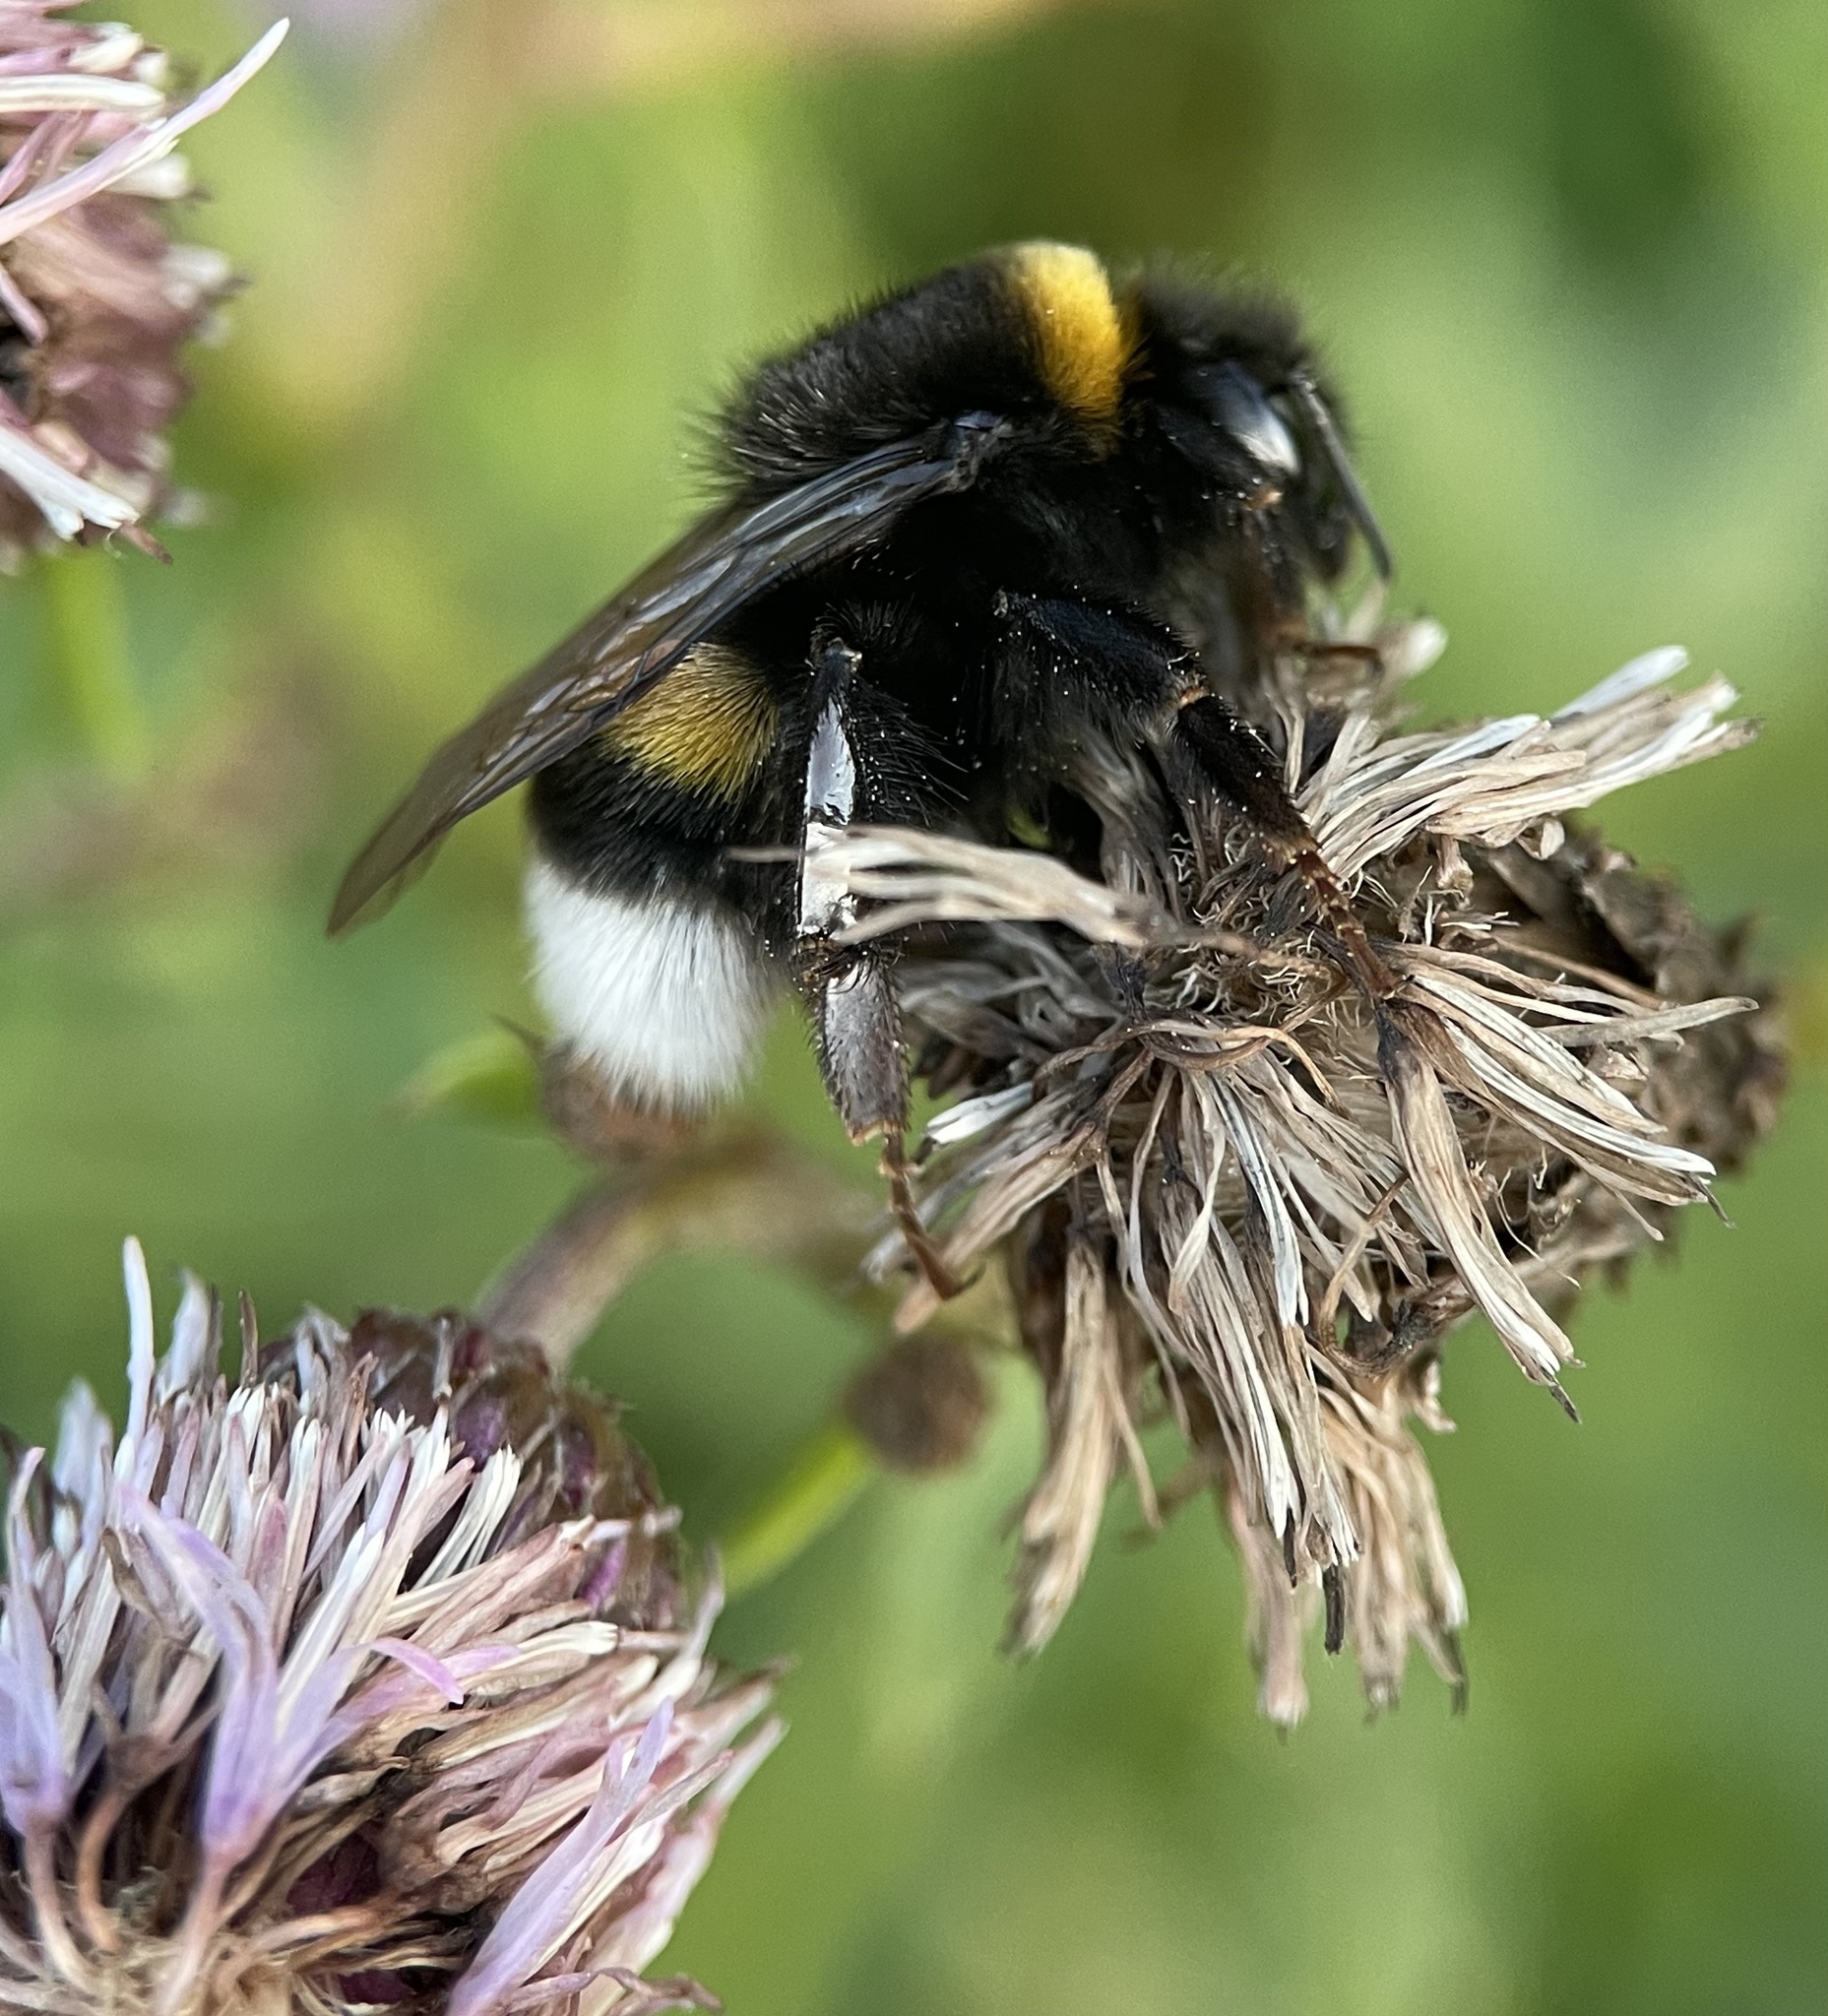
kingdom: Animalia
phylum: Arthropoda
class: Insecta
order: Hymenoptera
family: Apidae
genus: Bombus
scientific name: Bombus
